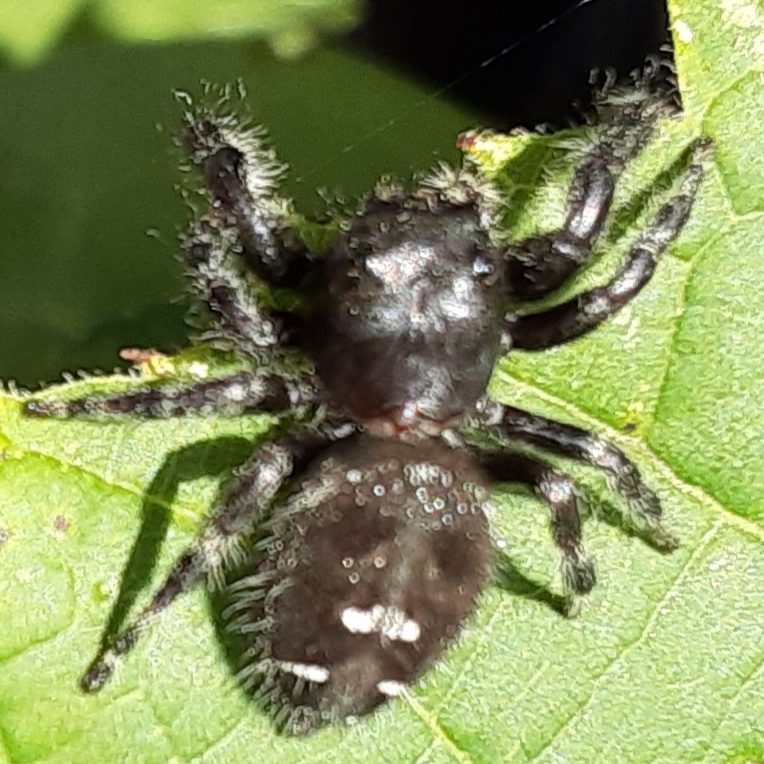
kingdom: Animalia
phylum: Arthropoda
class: Arachnida
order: Araneae
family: Salticidae
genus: Phidippus
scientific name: Phidippus audax
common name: Bold jumper
